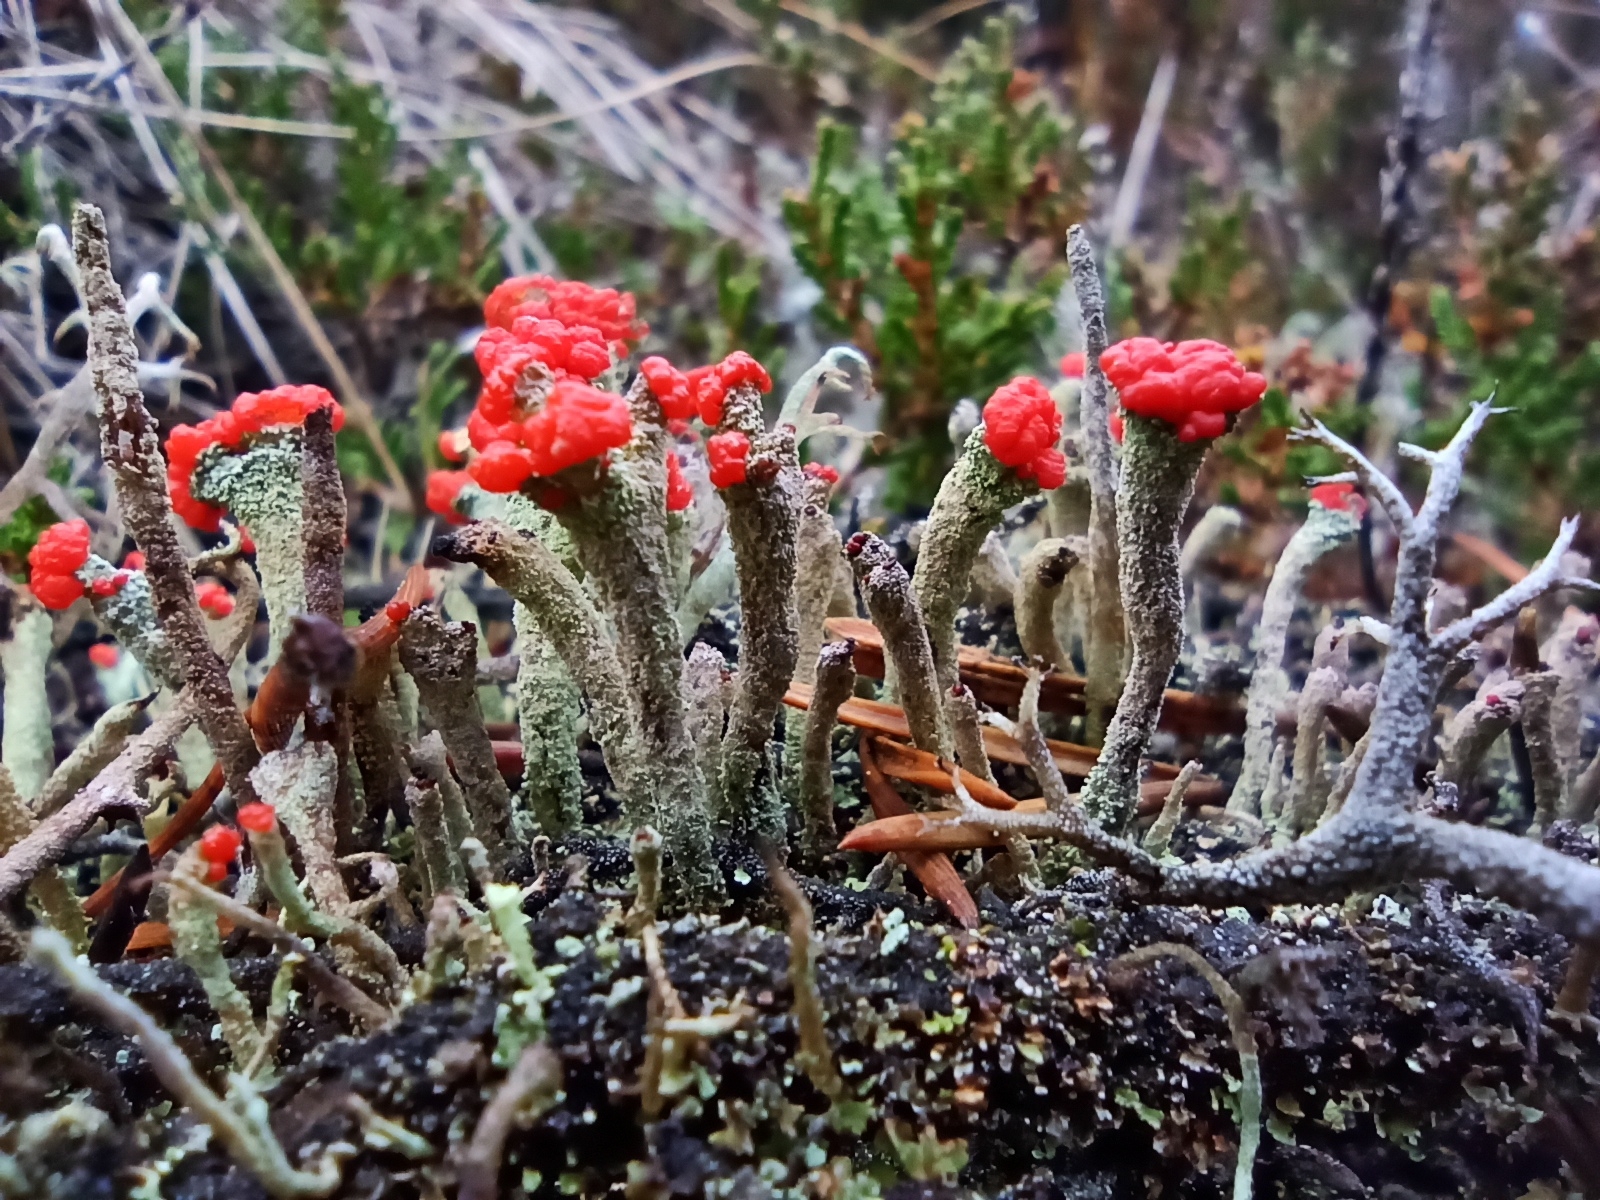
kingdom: Fungi
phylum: Ascomycota
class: Lecanoromycetes
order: Lecanorales
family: Cladoniaceae
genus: Cladonia
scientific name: Cladonia floerkeana
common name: Gritty british soldiers lichen
